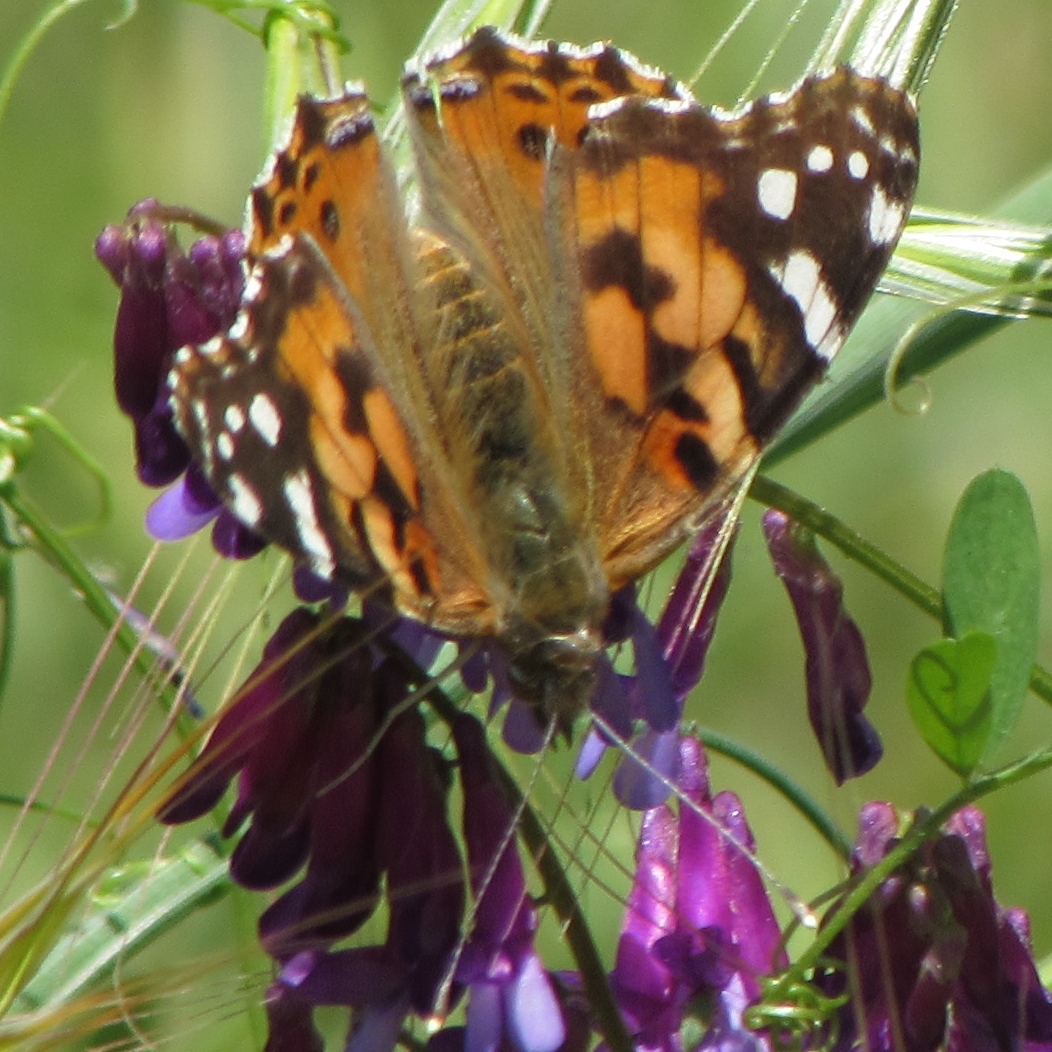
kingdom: Animalia
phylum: Arthropoda
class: Insecta
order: Lepidoptera
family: Nymphalidae
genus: Vanessa
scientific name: Vanessa cardui
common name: Painted lady
